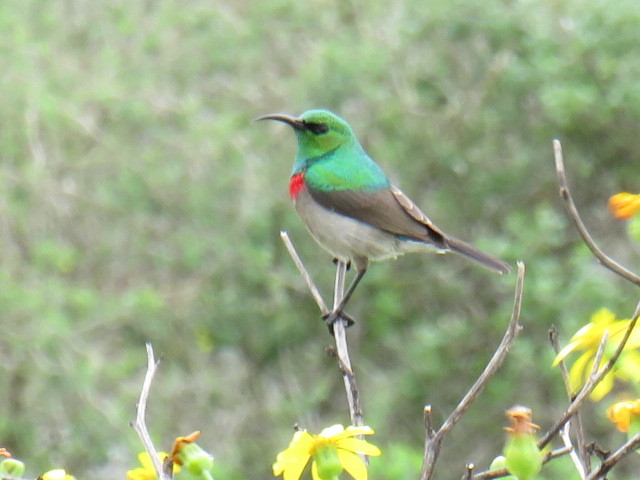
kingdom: Animalia
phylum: Chordata
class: Aves
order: Passeriformes
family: Nectariniidae
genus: Cinnyris
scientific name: Cinnyris chalybeus
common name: Southern double-collared sunbird
